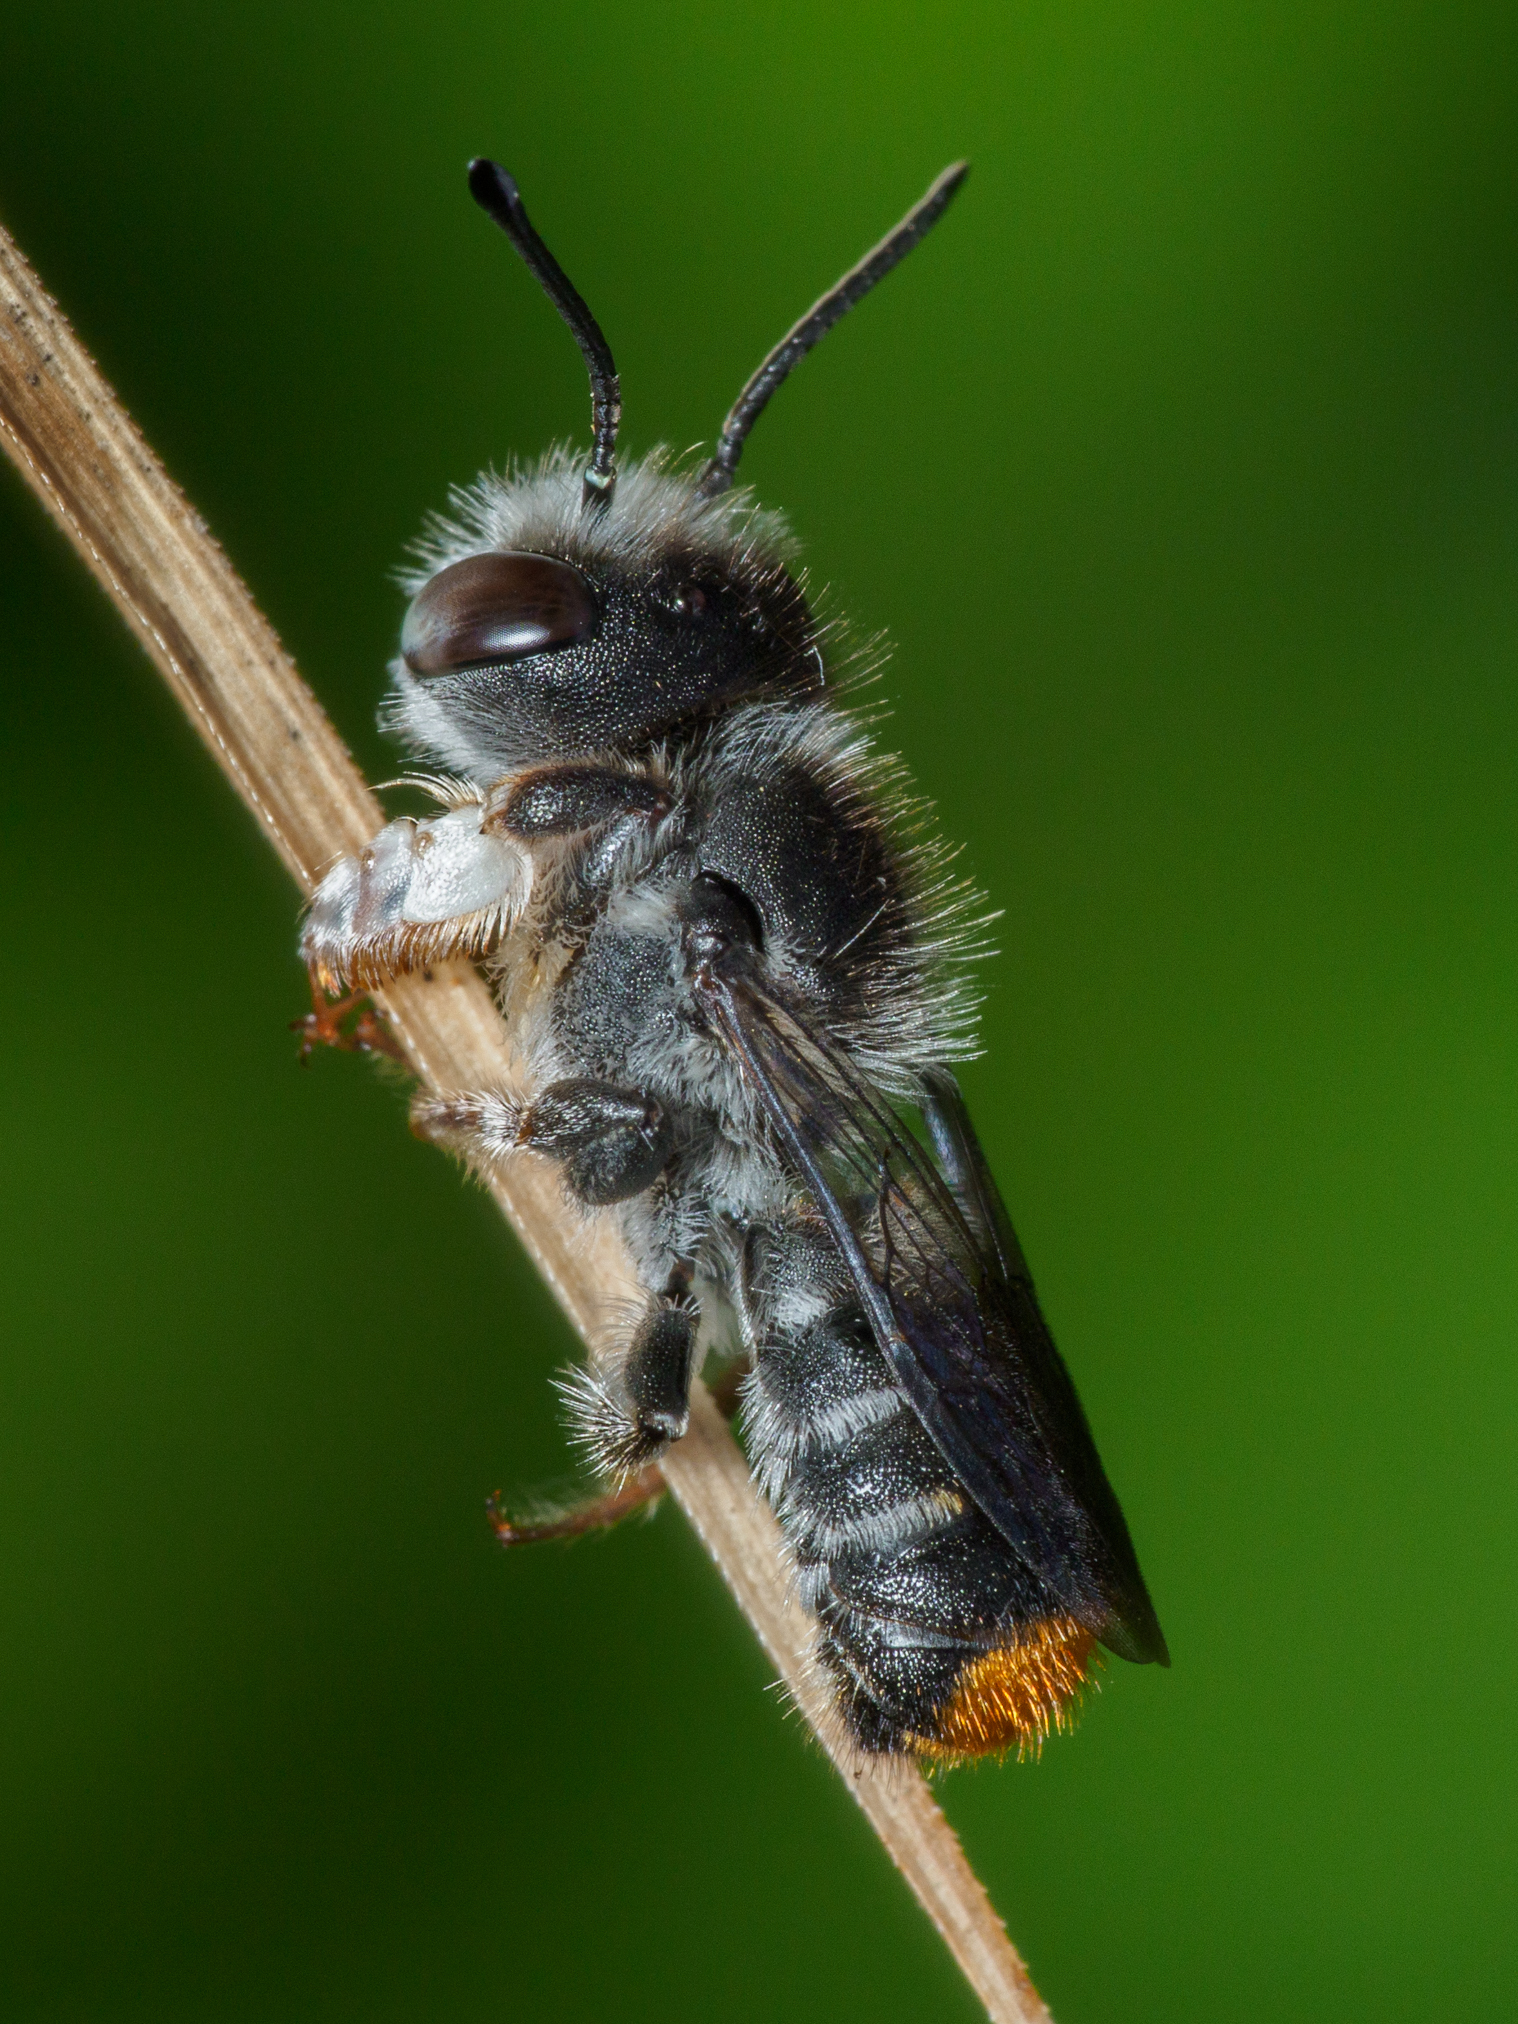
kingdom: Animalia
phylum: Arthropoda
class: Insecta
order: Hymenoptera
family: Megachilidae
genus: Megachile
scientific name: Megachile ferox
